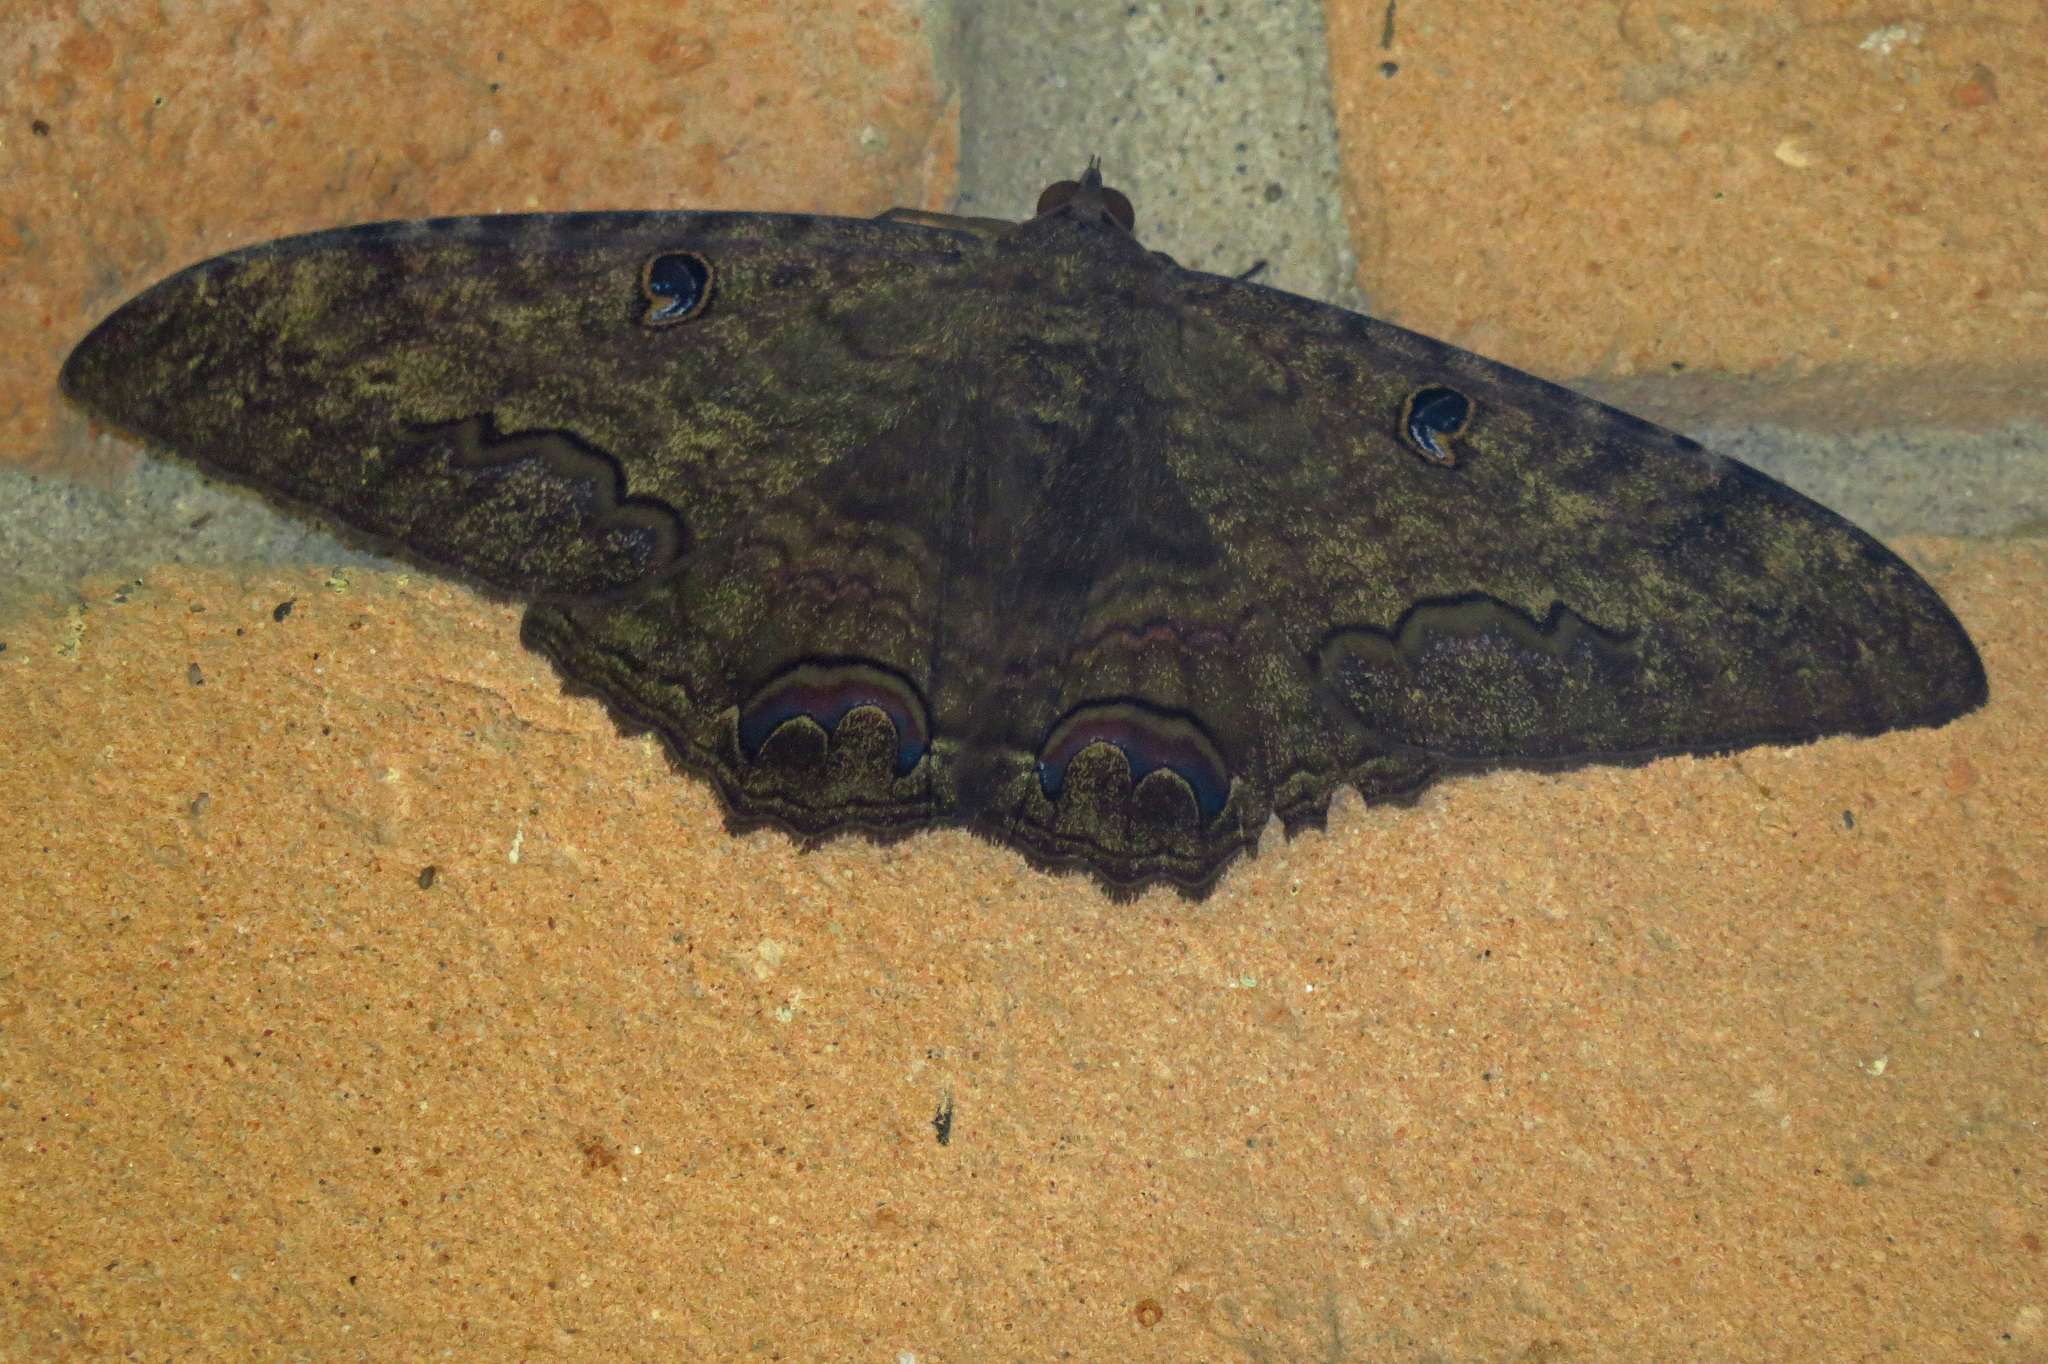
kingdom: Animalia
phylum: Arthropoda
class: Insecta
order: Lepidoptera
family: Erebidae
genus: Ascalapha
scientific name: Ascalapha odorata
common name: Black witch
